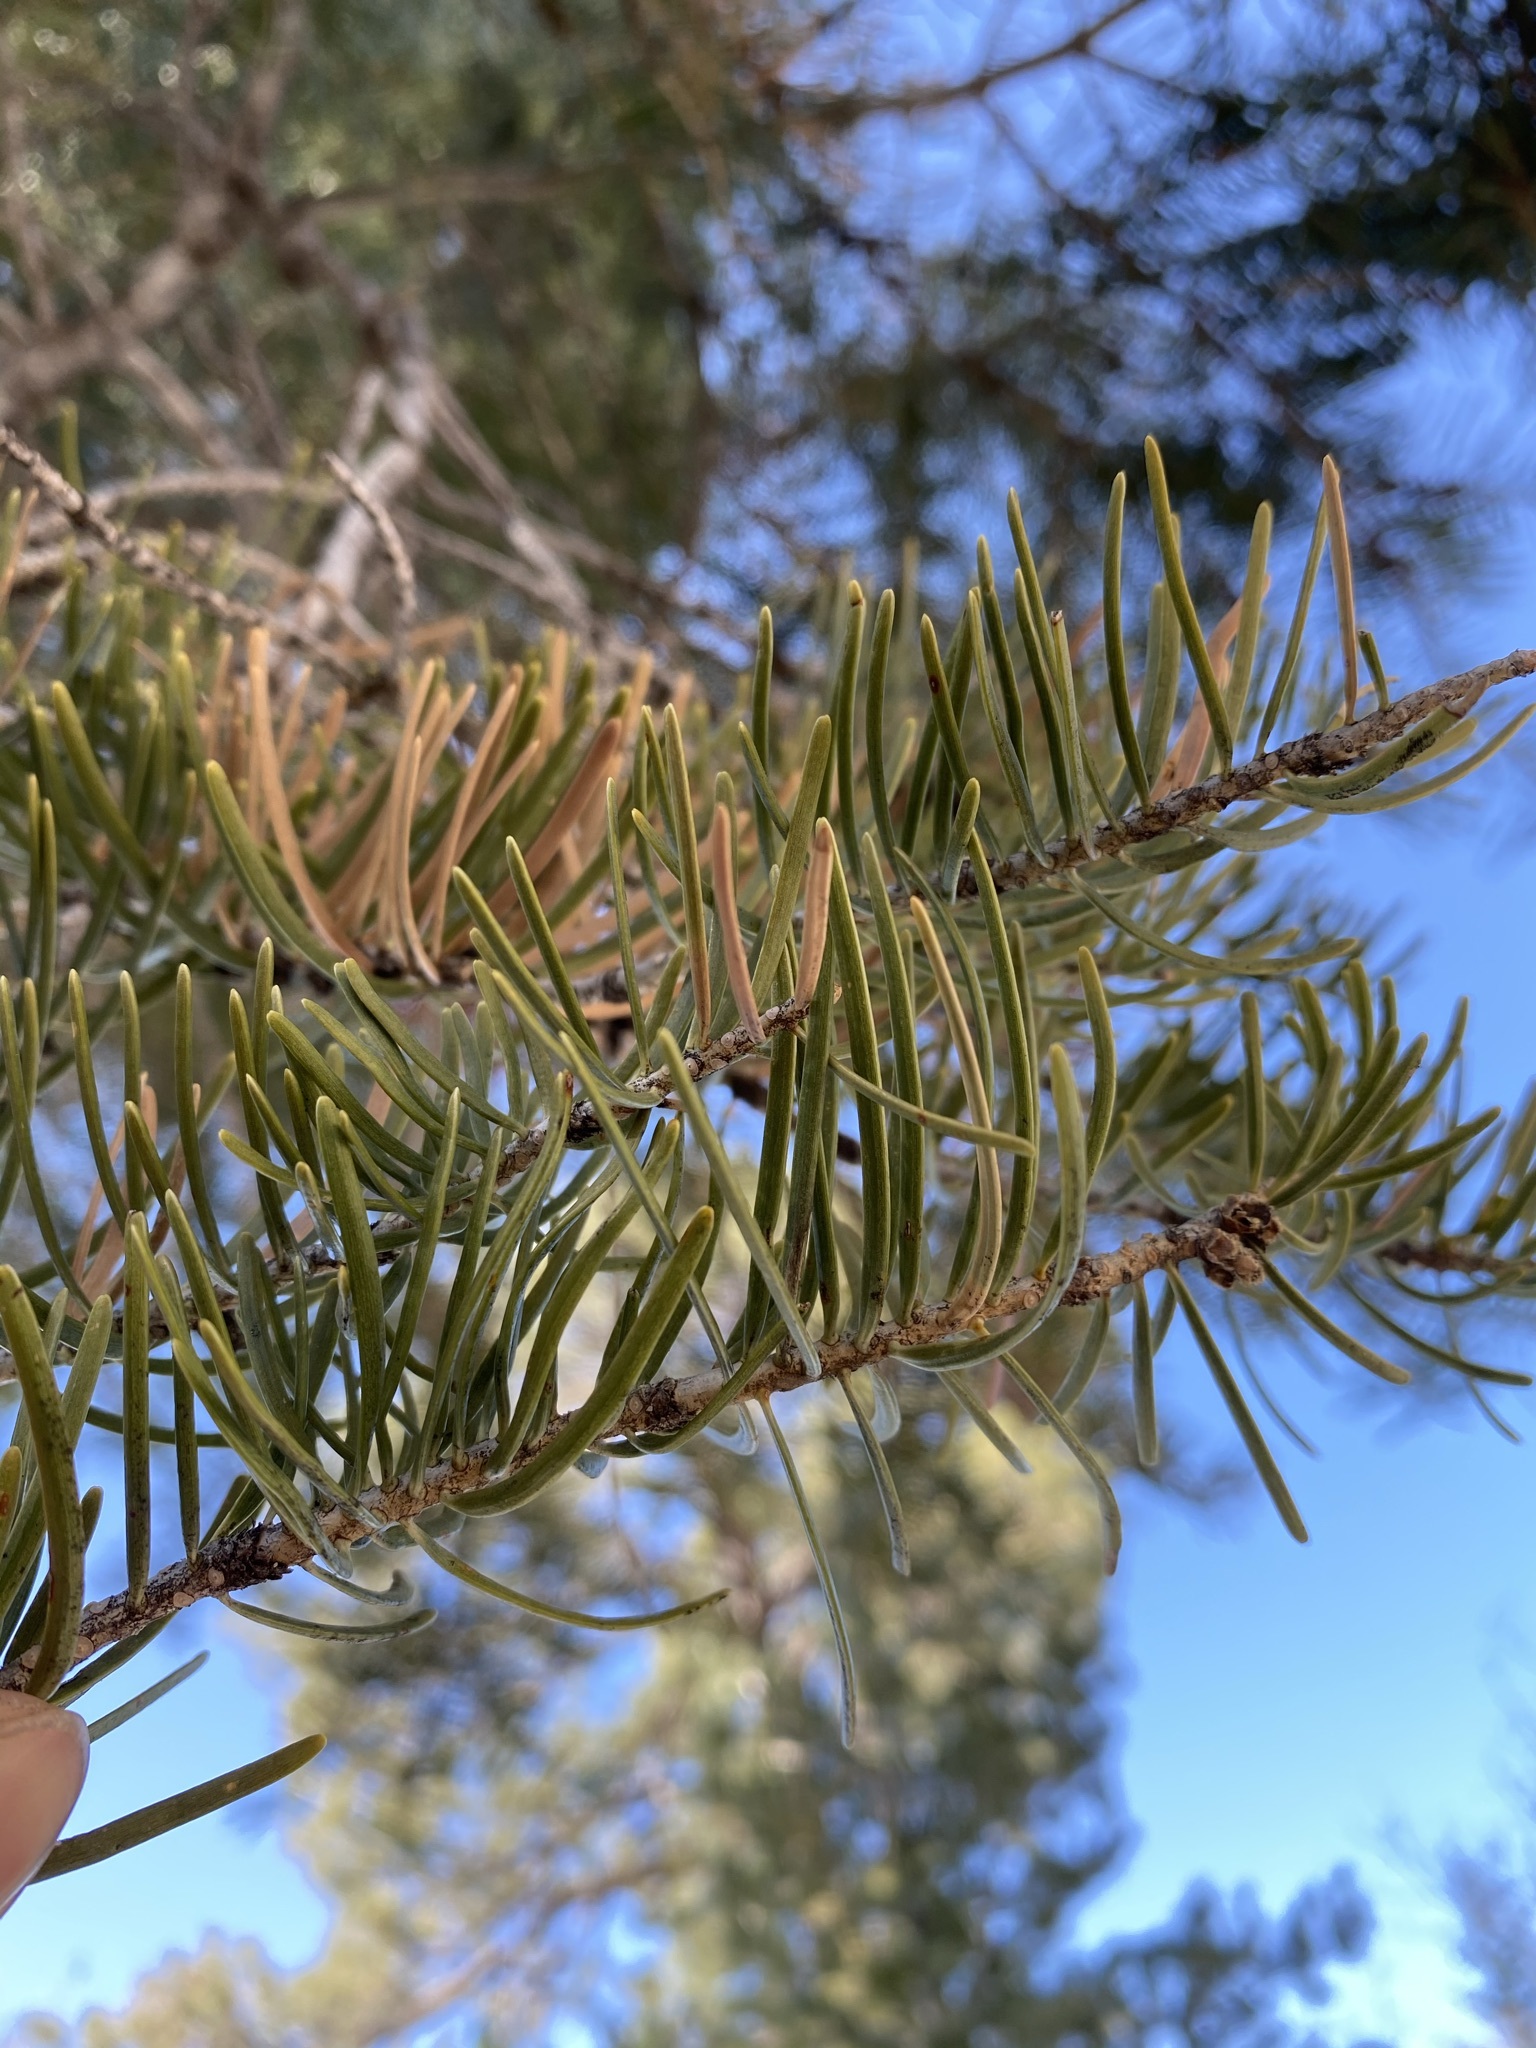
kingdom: Plantae
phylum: Tracheophyta
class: Pinopsida
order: Pinales
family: Pinaceae
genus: Abies
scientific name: Abies concolor
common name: Colorado fir
